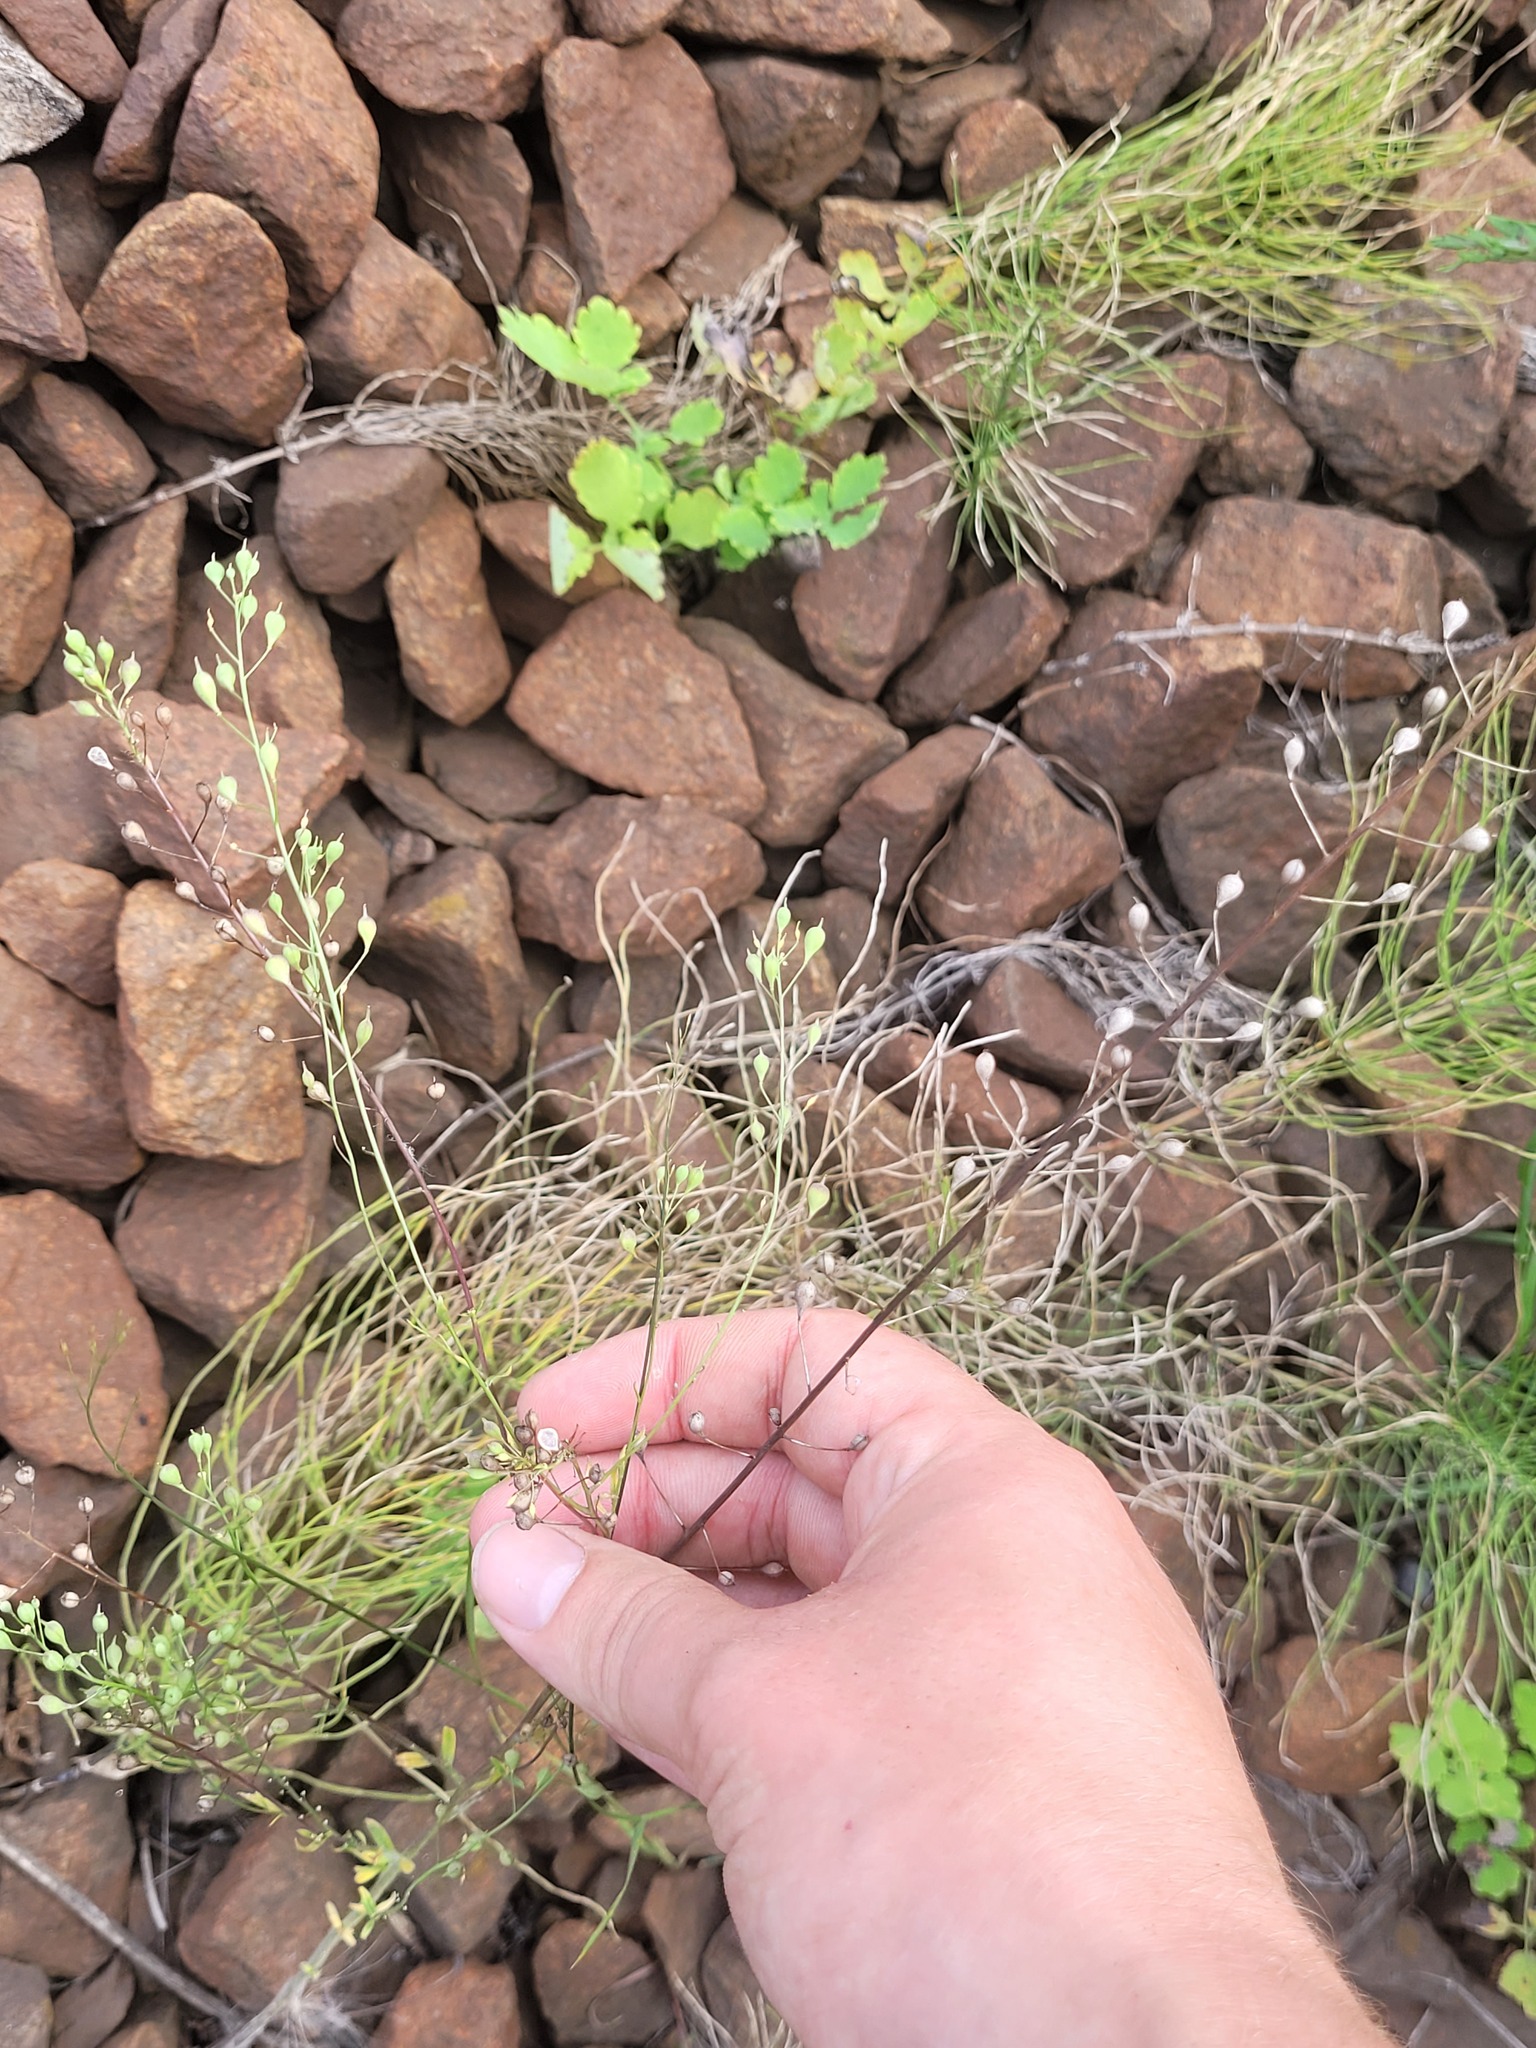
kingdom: Plantae
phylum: Tracheophyta
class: Magnoliopsida
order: Brassicales
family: Brassicaceae
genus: Camelina
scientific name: Camelina microcarpa
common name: Lesser gold-of-pleasure
